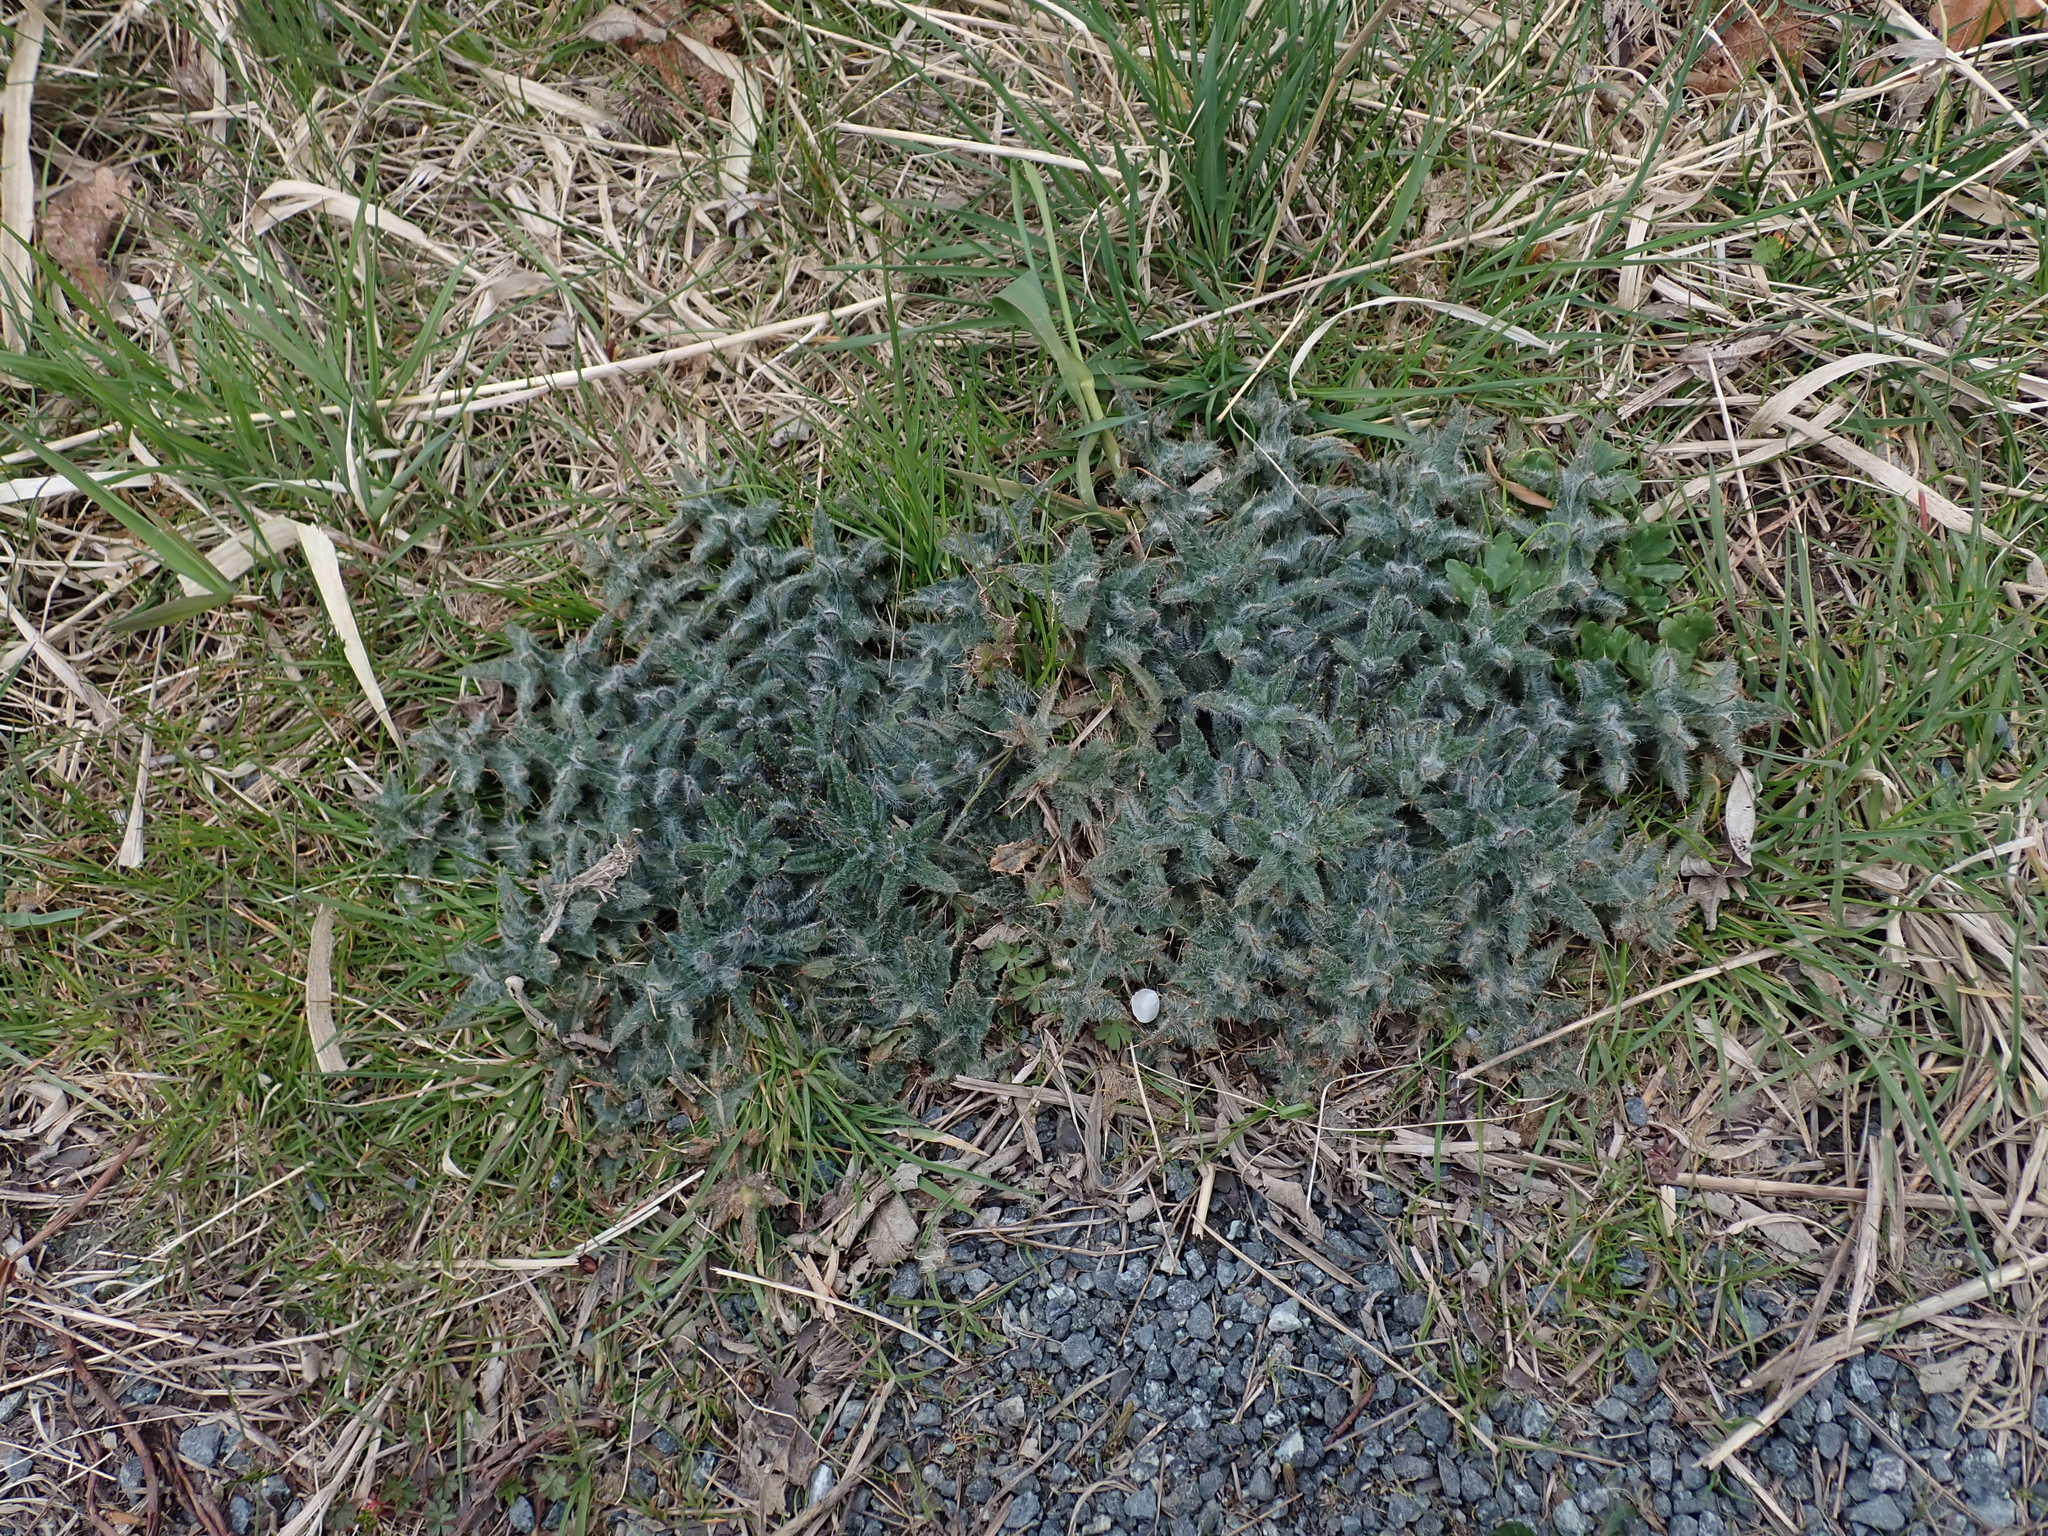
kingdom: Plantae
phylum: Tracheophyta
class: Magnoliopsida
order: Asterales
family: Asteraceae
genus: Cirsium
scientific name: Cirsium vulgare
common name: Bull thistle
